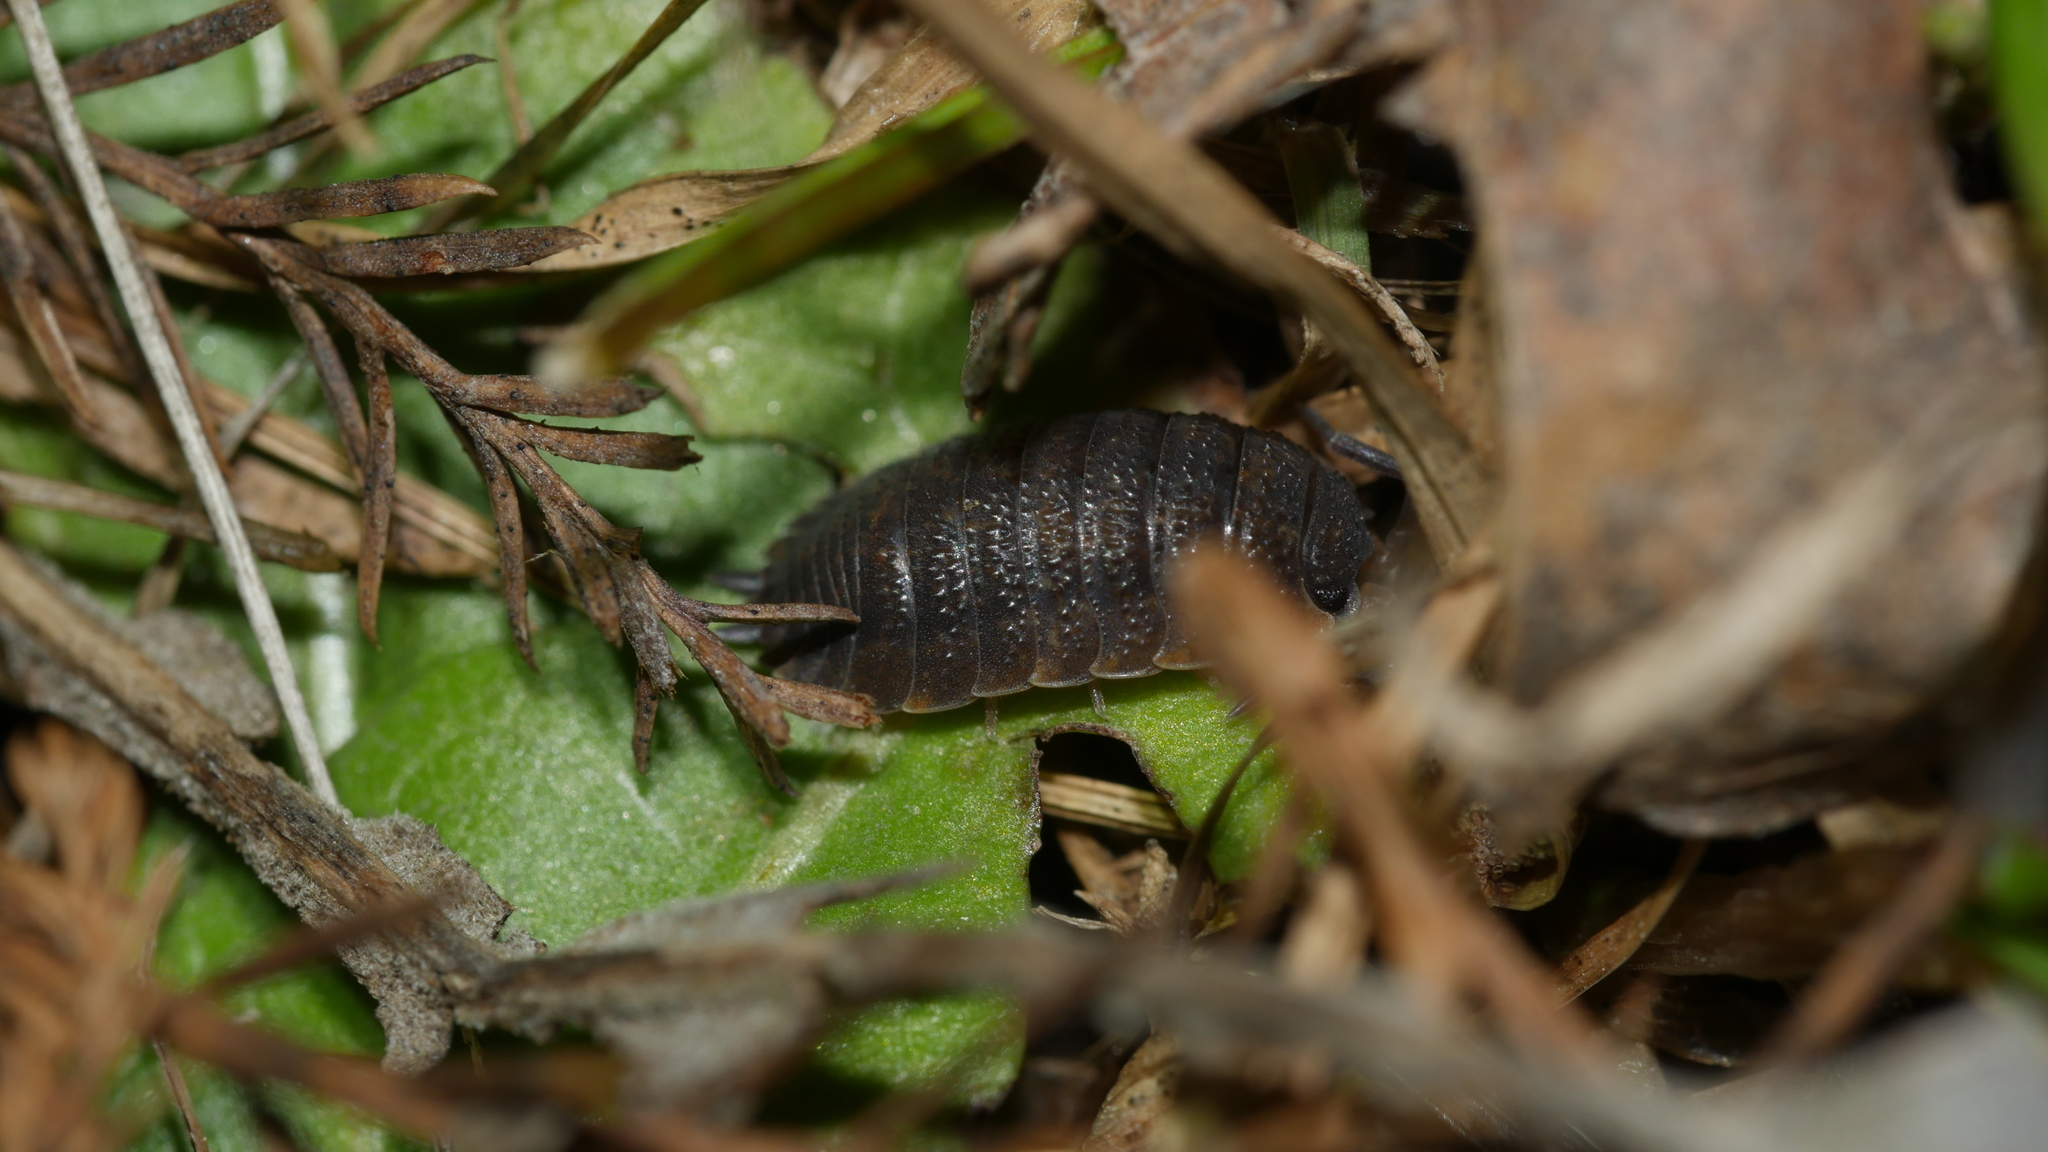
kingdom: Animalia
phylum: Arthropoda
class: Malacostraca
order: Isopoda
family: Porcellionidae
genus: Porcellio
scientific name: Porcellio scaber
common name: Common rough woodlouse
